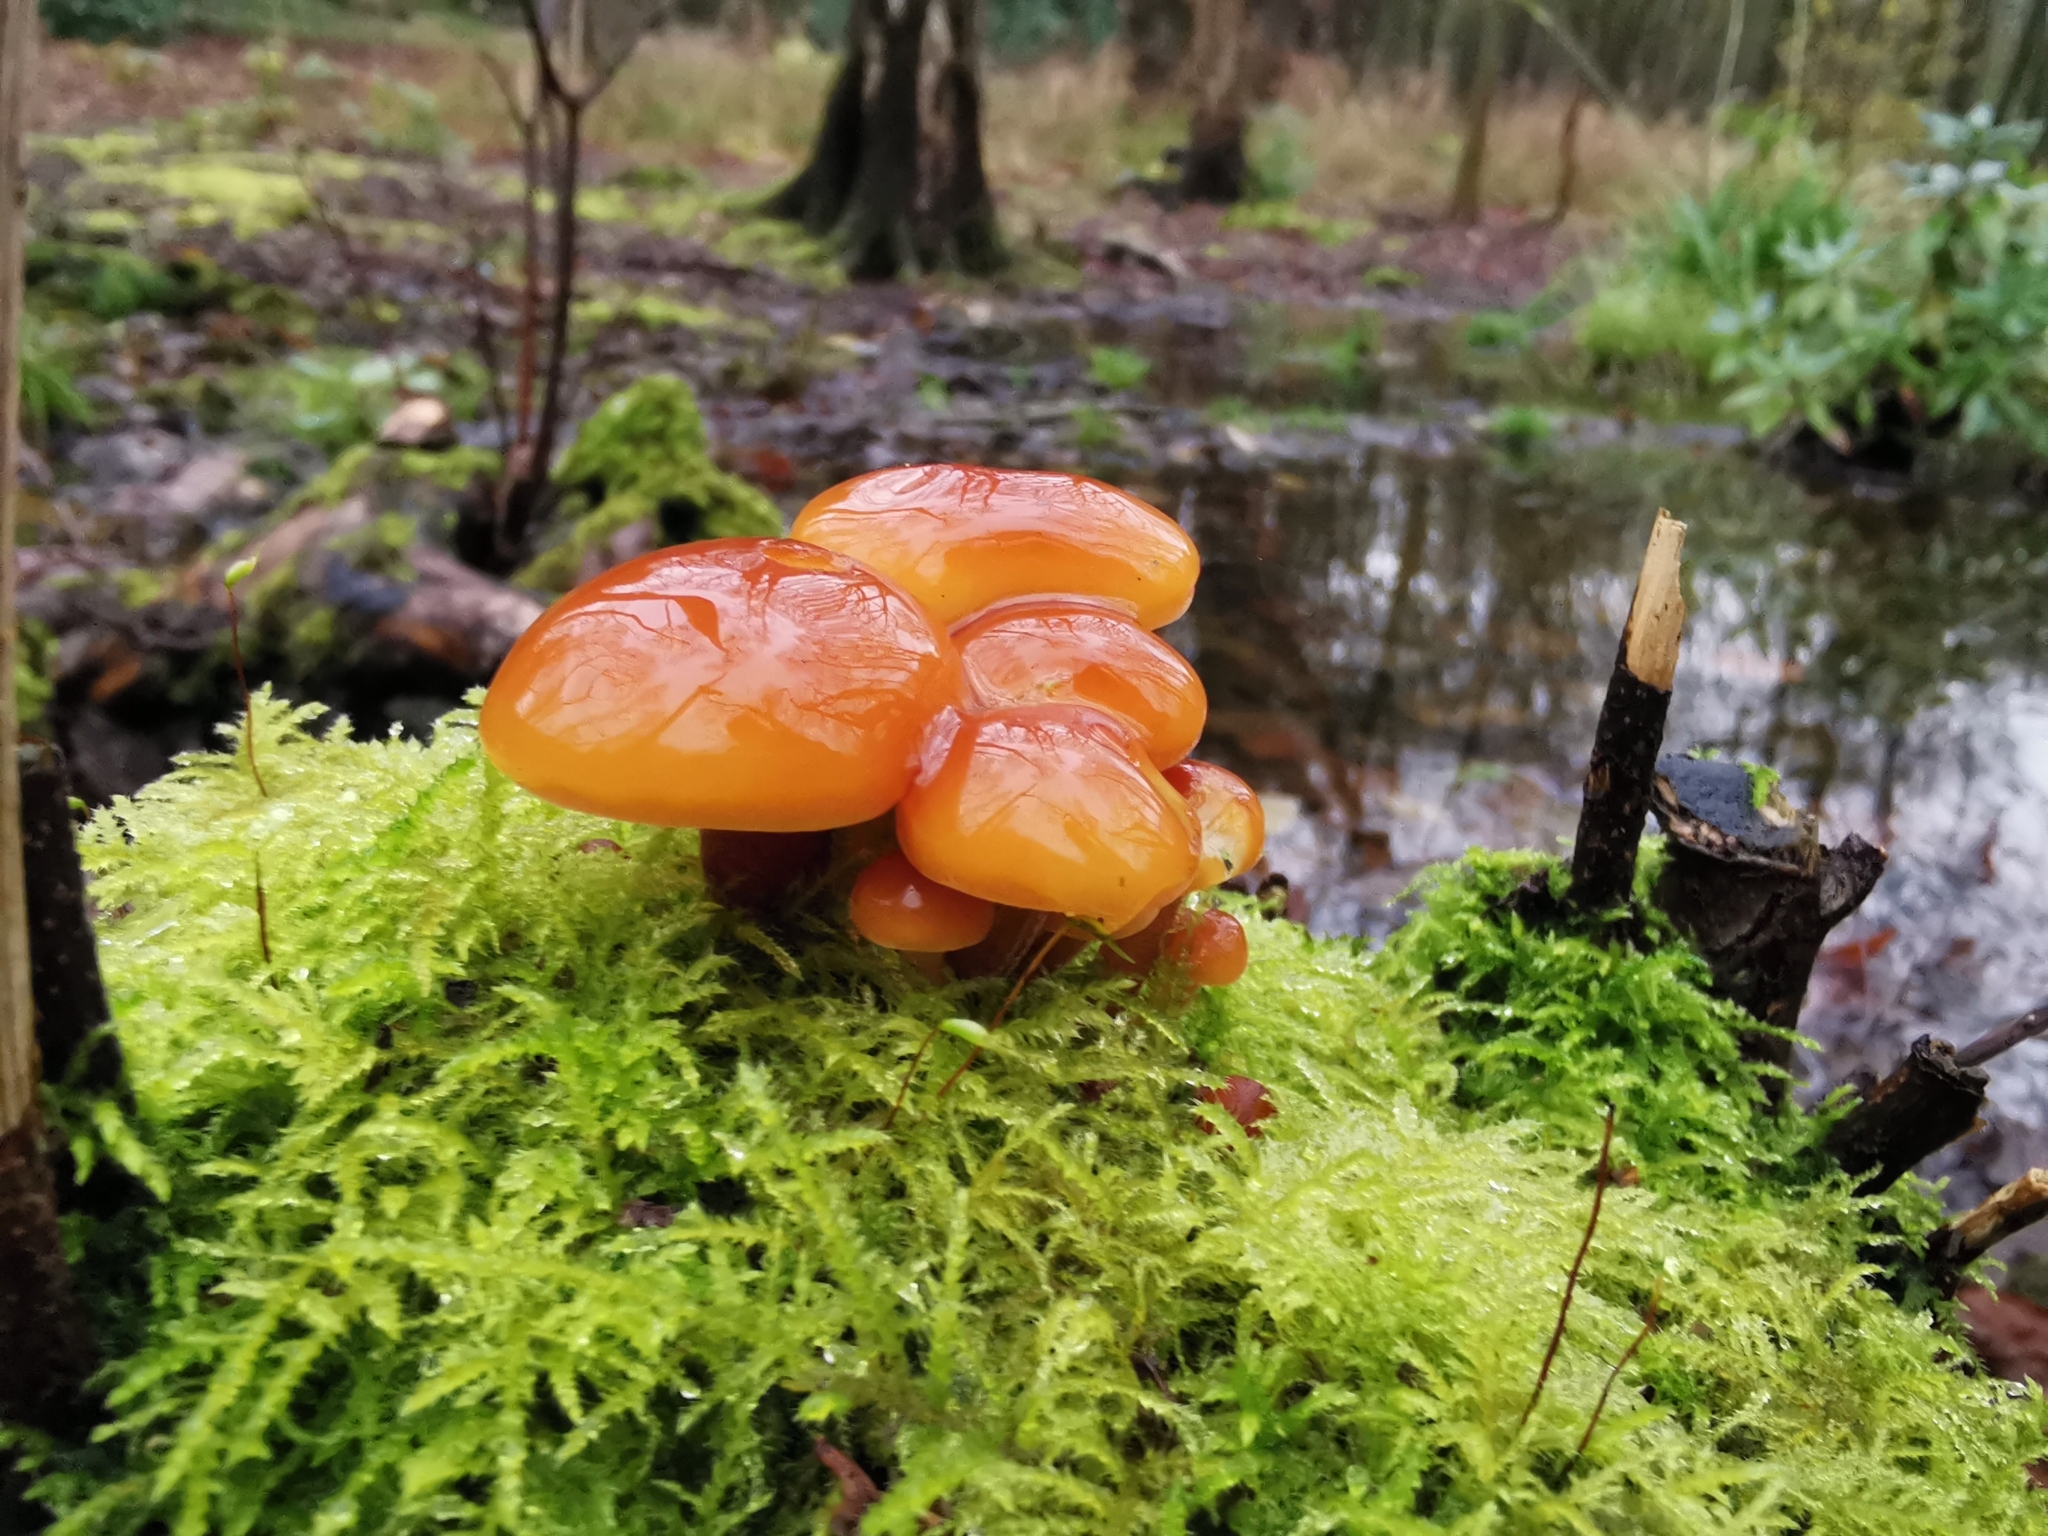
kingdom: Fungi
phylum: Basidiomycota
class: Agaricomycetes
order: Agaricales
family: Physalacriaceae
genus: Flammulina
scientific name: Flammulina
